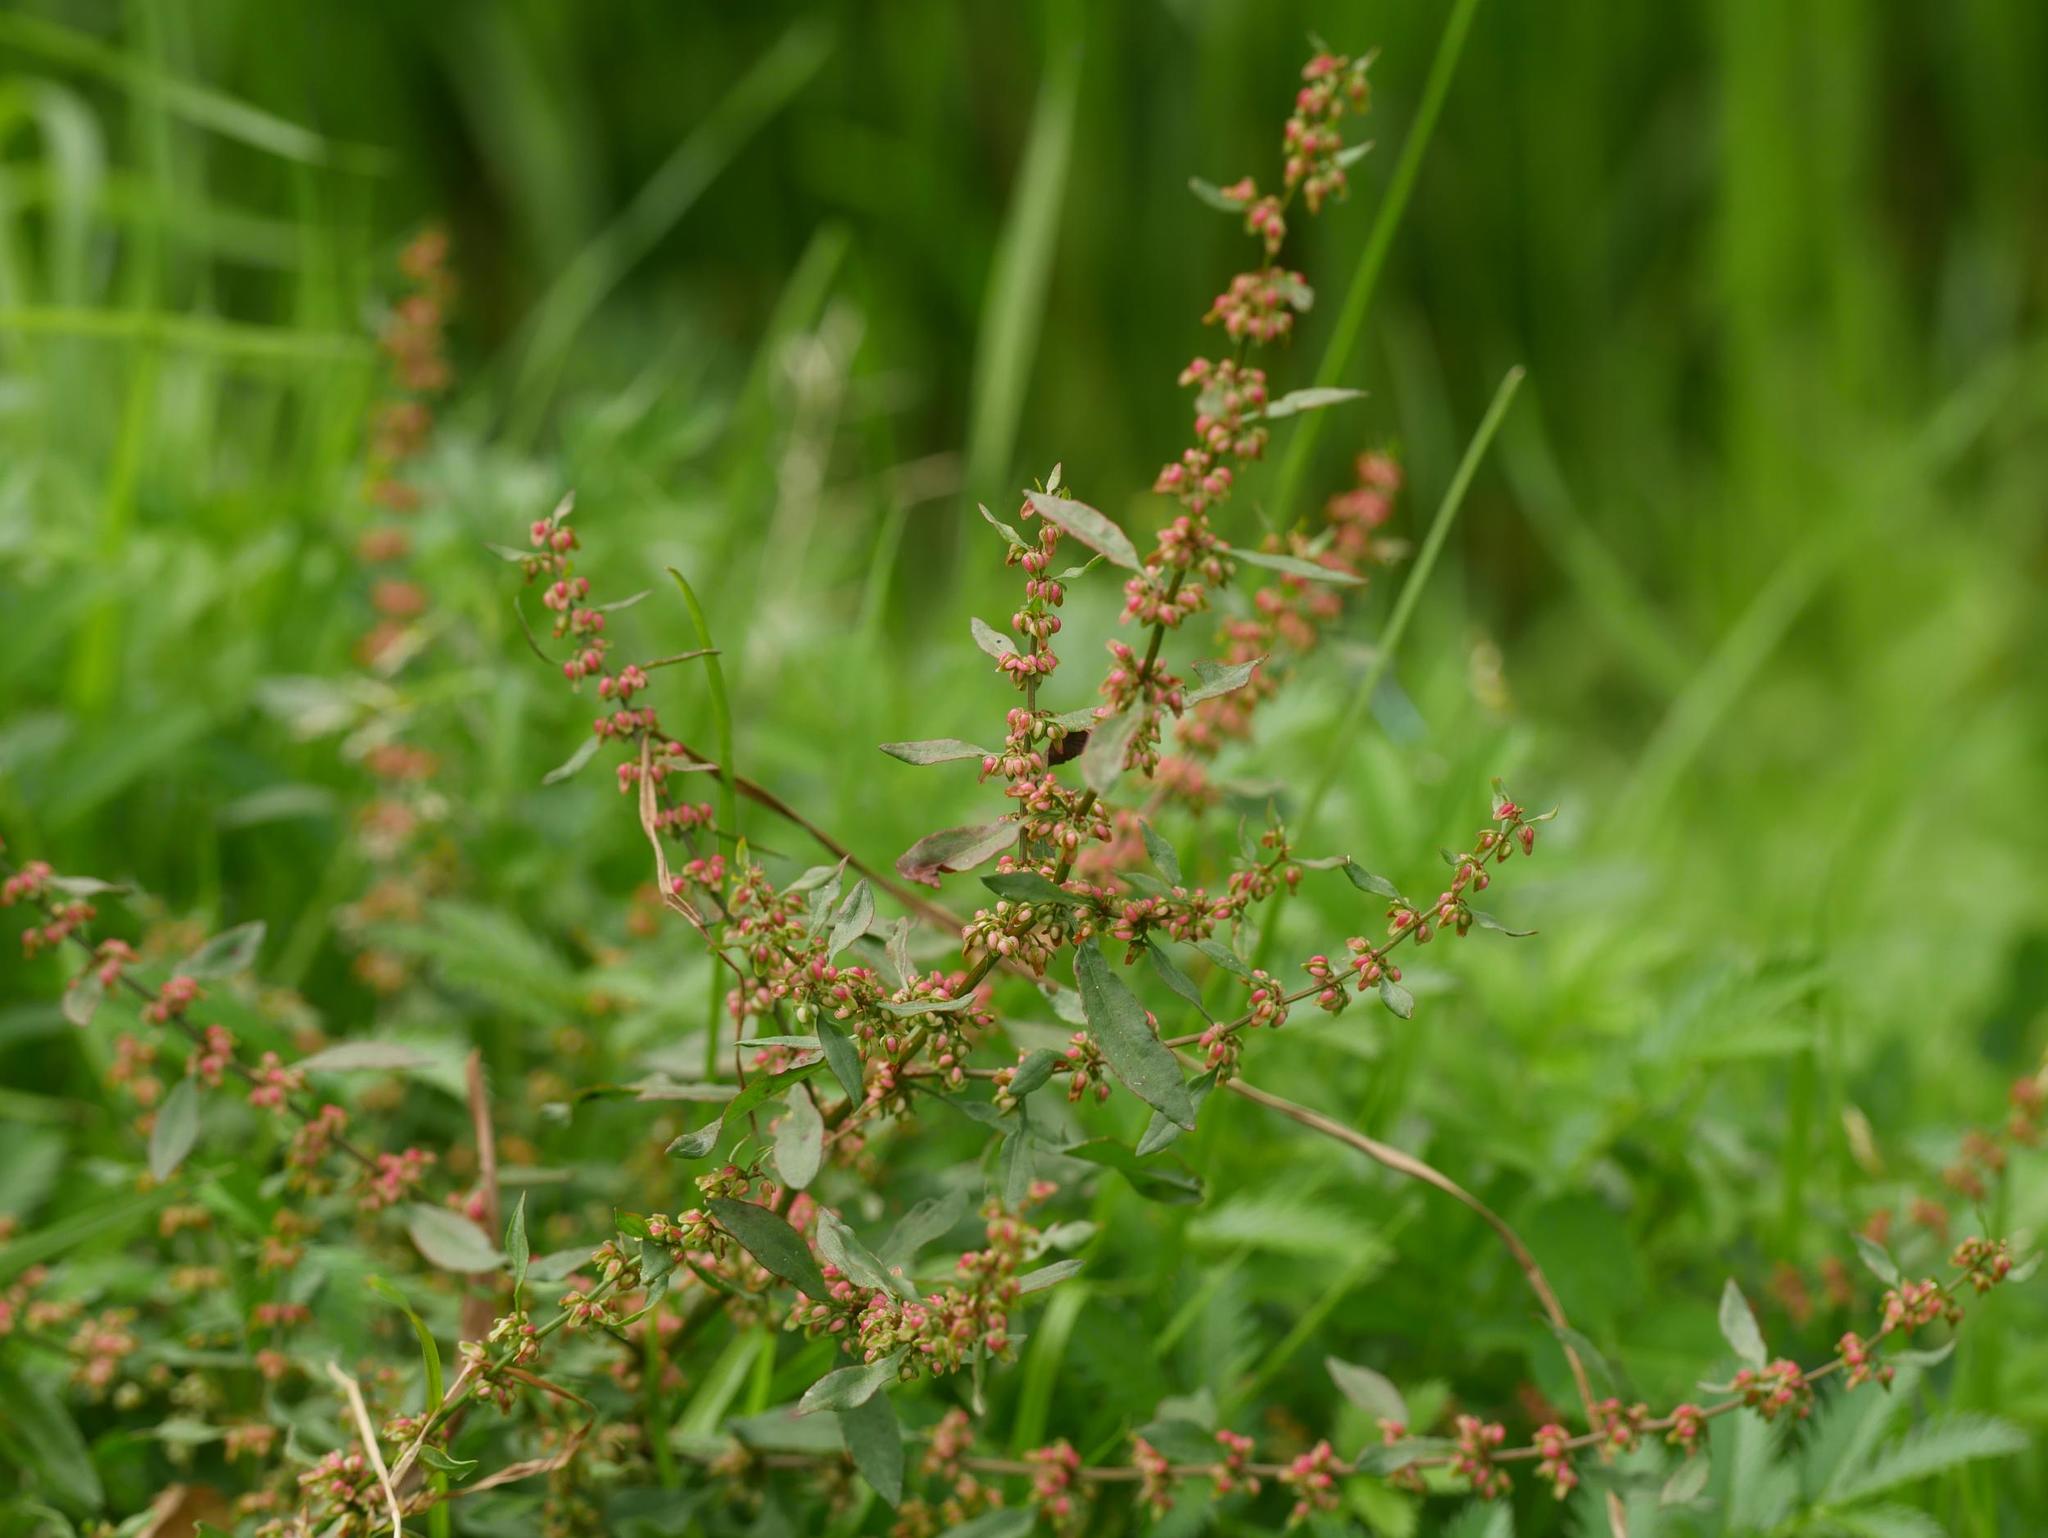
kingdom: Plantae
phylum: Tracheophyta
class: Magnoliopsida
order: Caryophyllales
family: Polygonaceae
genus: Rumex
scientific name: Rumex conglomeratus
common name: Clustered dock
